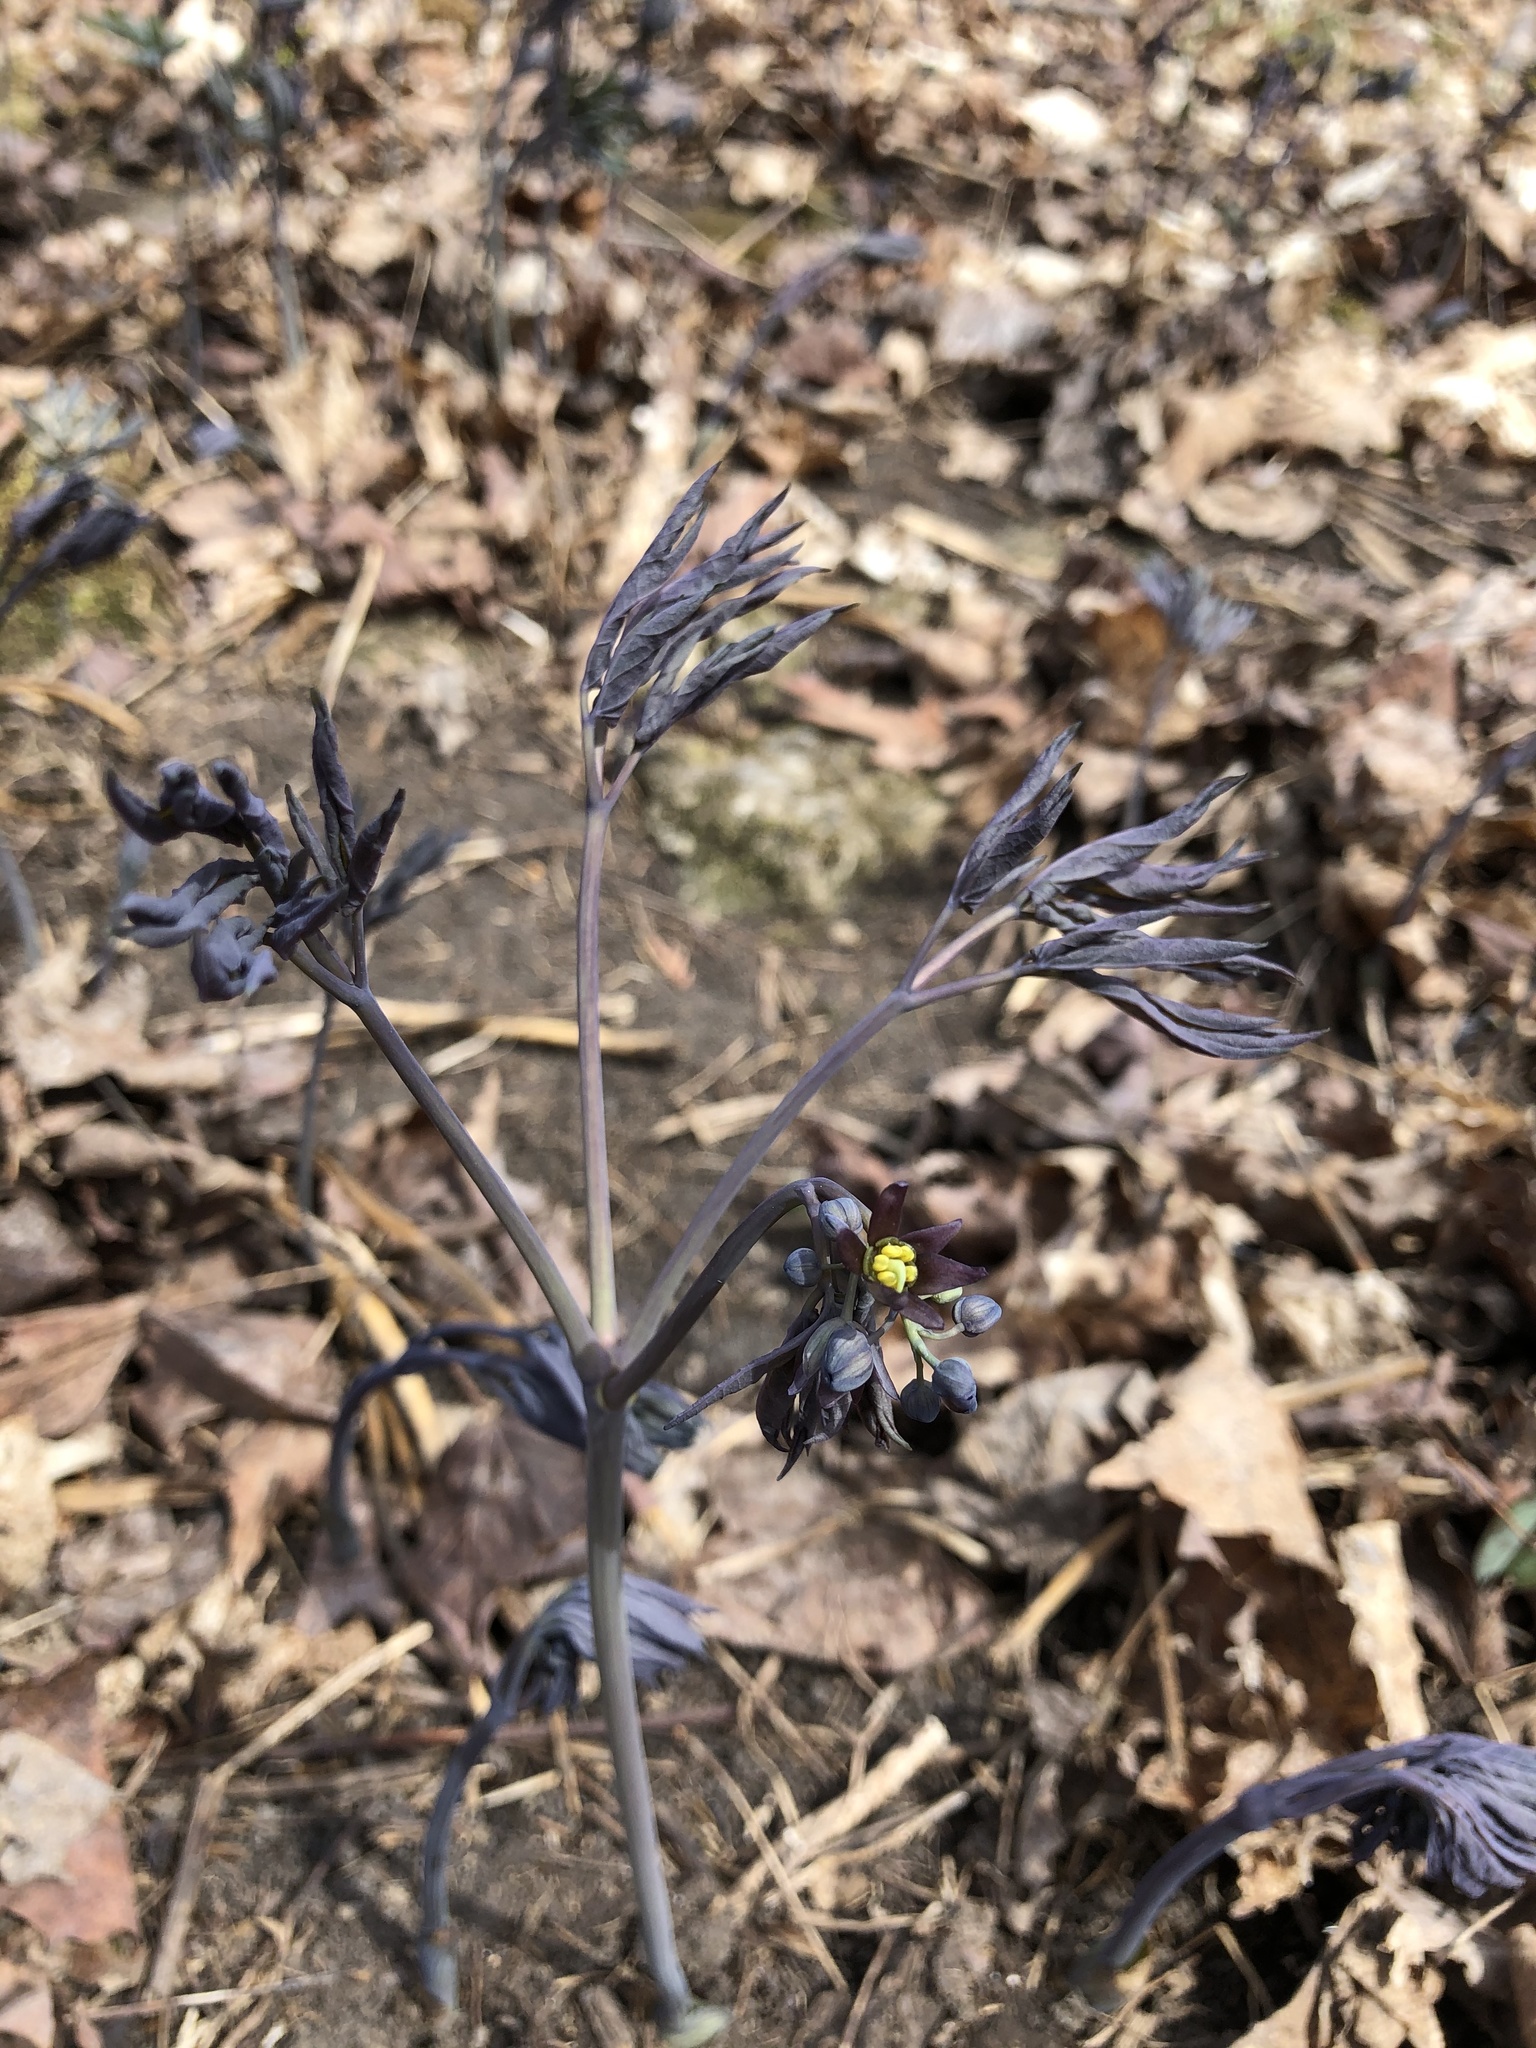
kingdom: Plantae
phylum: Tracheophyta
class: Magnoliopsida
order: Ranunculales
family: Berberidaceae
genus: Caulophyllum
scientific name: Caulophyllum giganteum
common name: Blue cohosh
